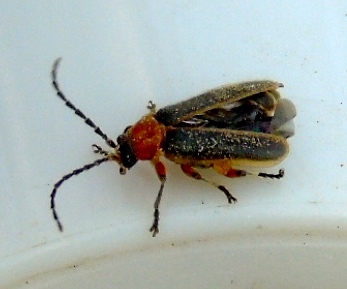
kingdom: Animalia
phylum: Arthropoda
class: Insecta
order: Coleoptera
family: Cantharidae
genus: Ditemnus
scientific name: Ditemnus
